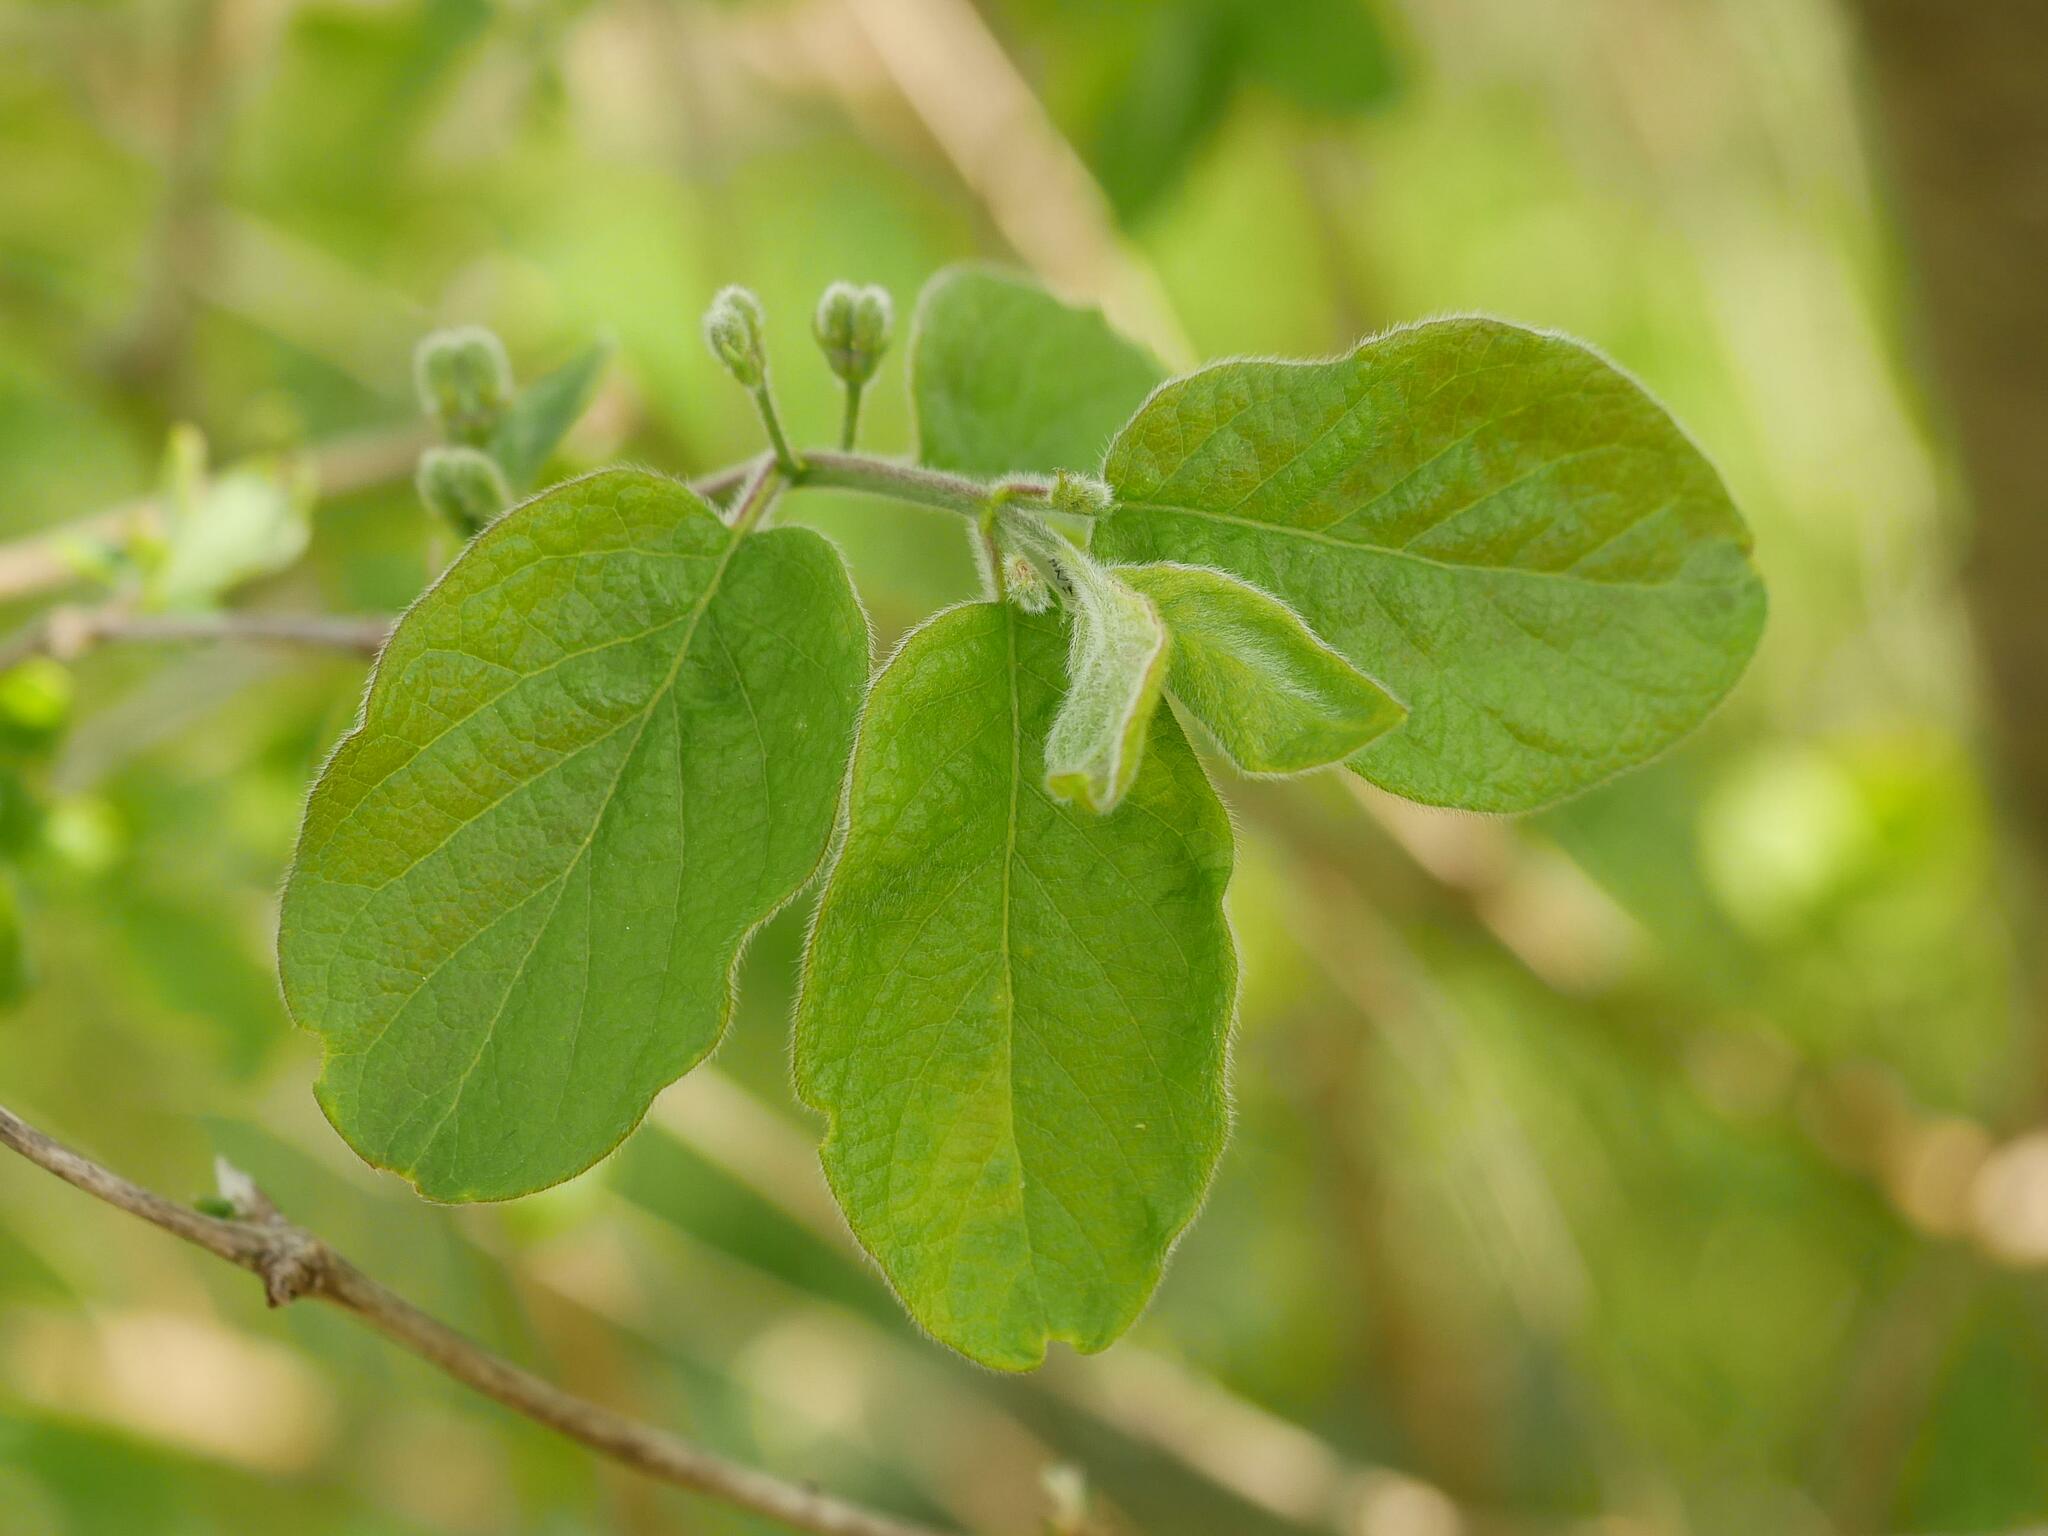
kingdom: Plantae
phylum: Tracheophyta
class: Magnoliopsida
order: Dipsacales
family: Caprifoliaceae
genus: Lonicera
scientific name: Lonicera xylosteum
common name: Fly honeysuckle
